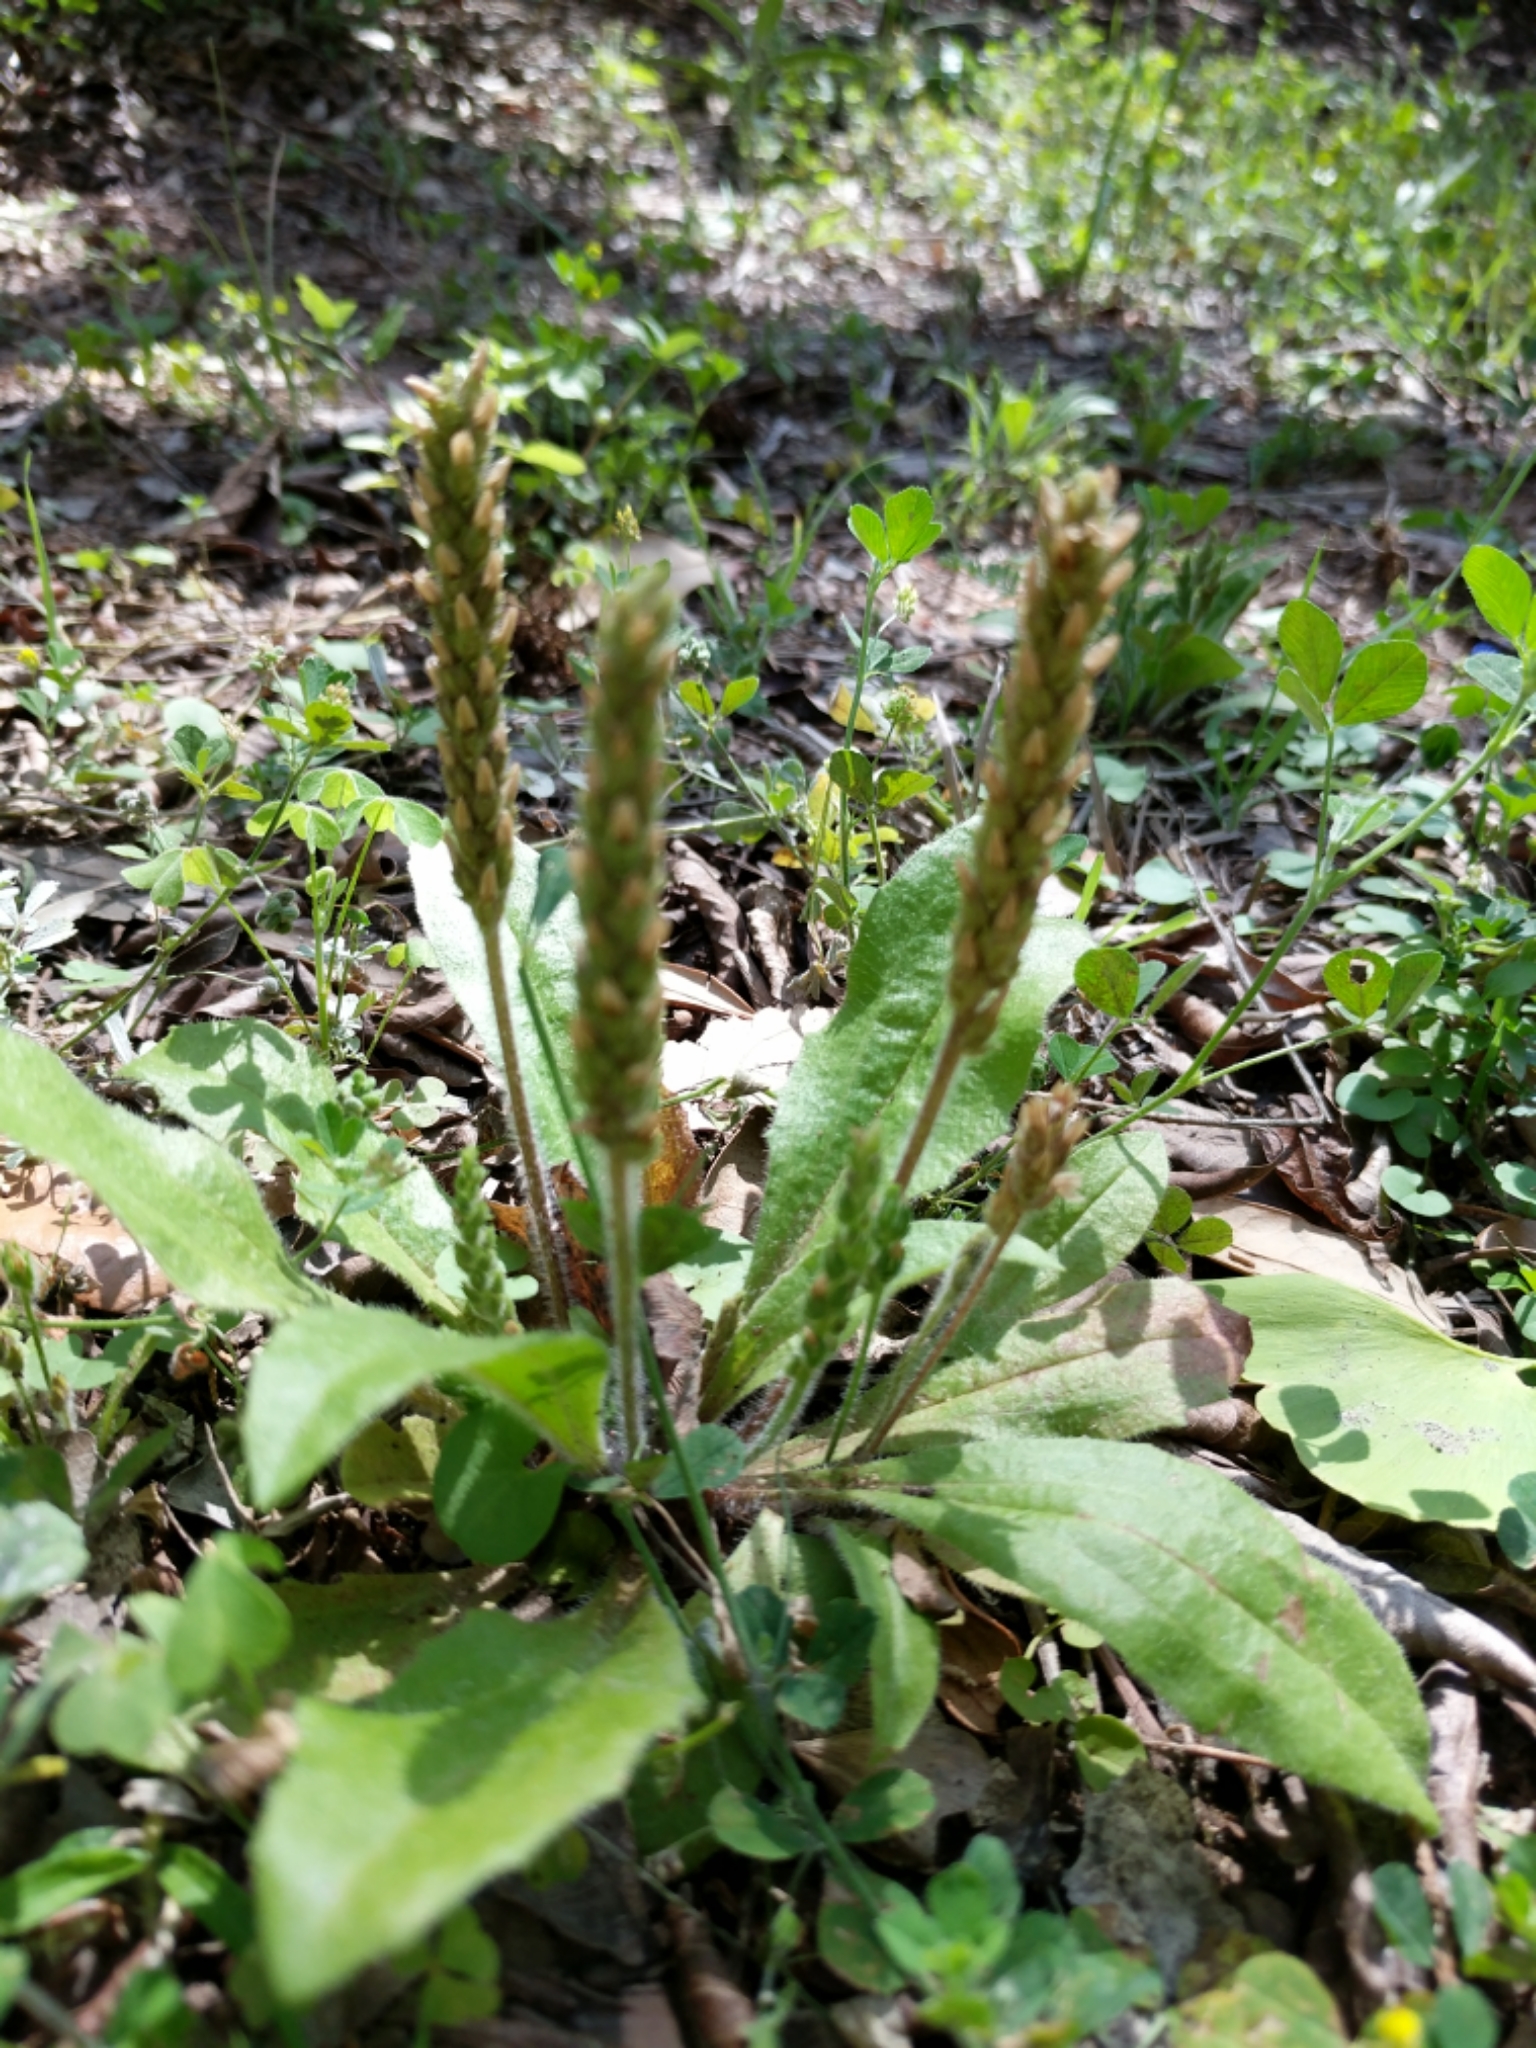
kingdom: Plantae
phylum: Tracheophyta
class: Magnoliopsida
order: Lamiales
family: Plantaginaceae
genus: Plantago
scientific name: Plantago rhodosperma
